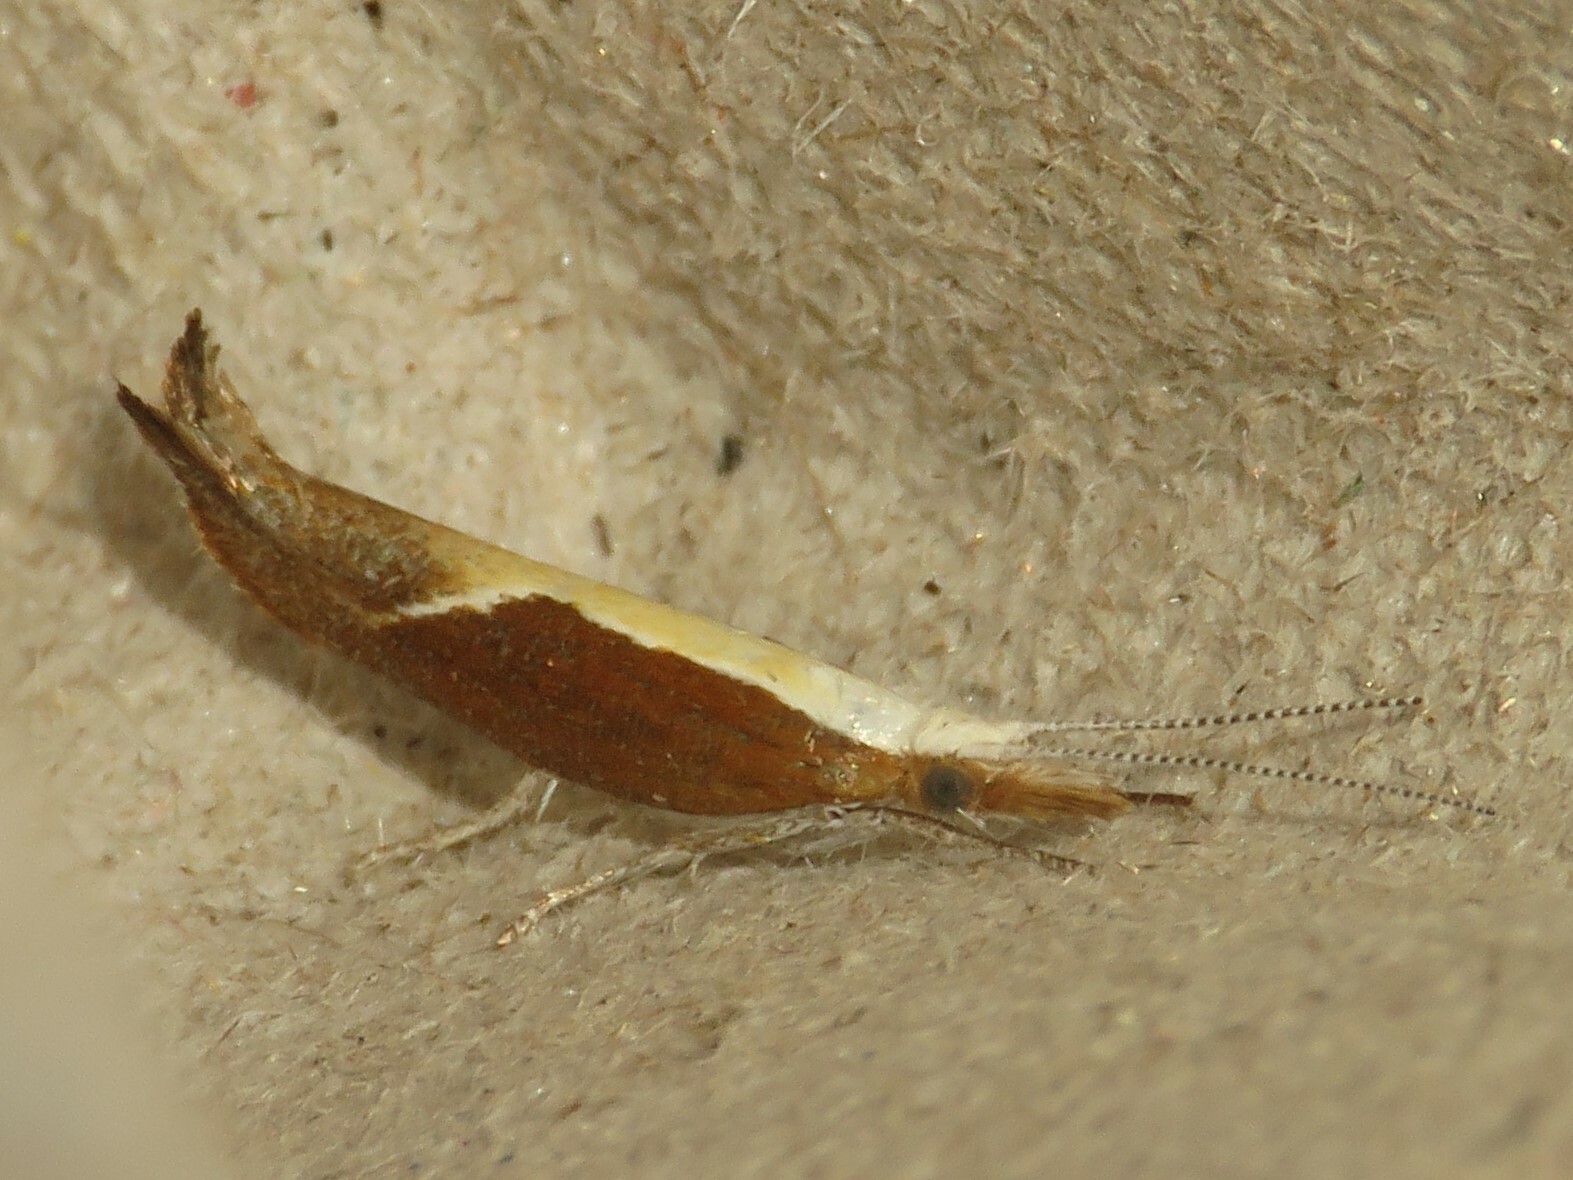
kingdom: Animalia
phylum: Arthropoda
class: Insecta
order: Lepidoptera
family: Ypsolophidae
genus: Ypsolopha
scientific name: Ypsolopha dentella
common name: Honeysuckle moth
